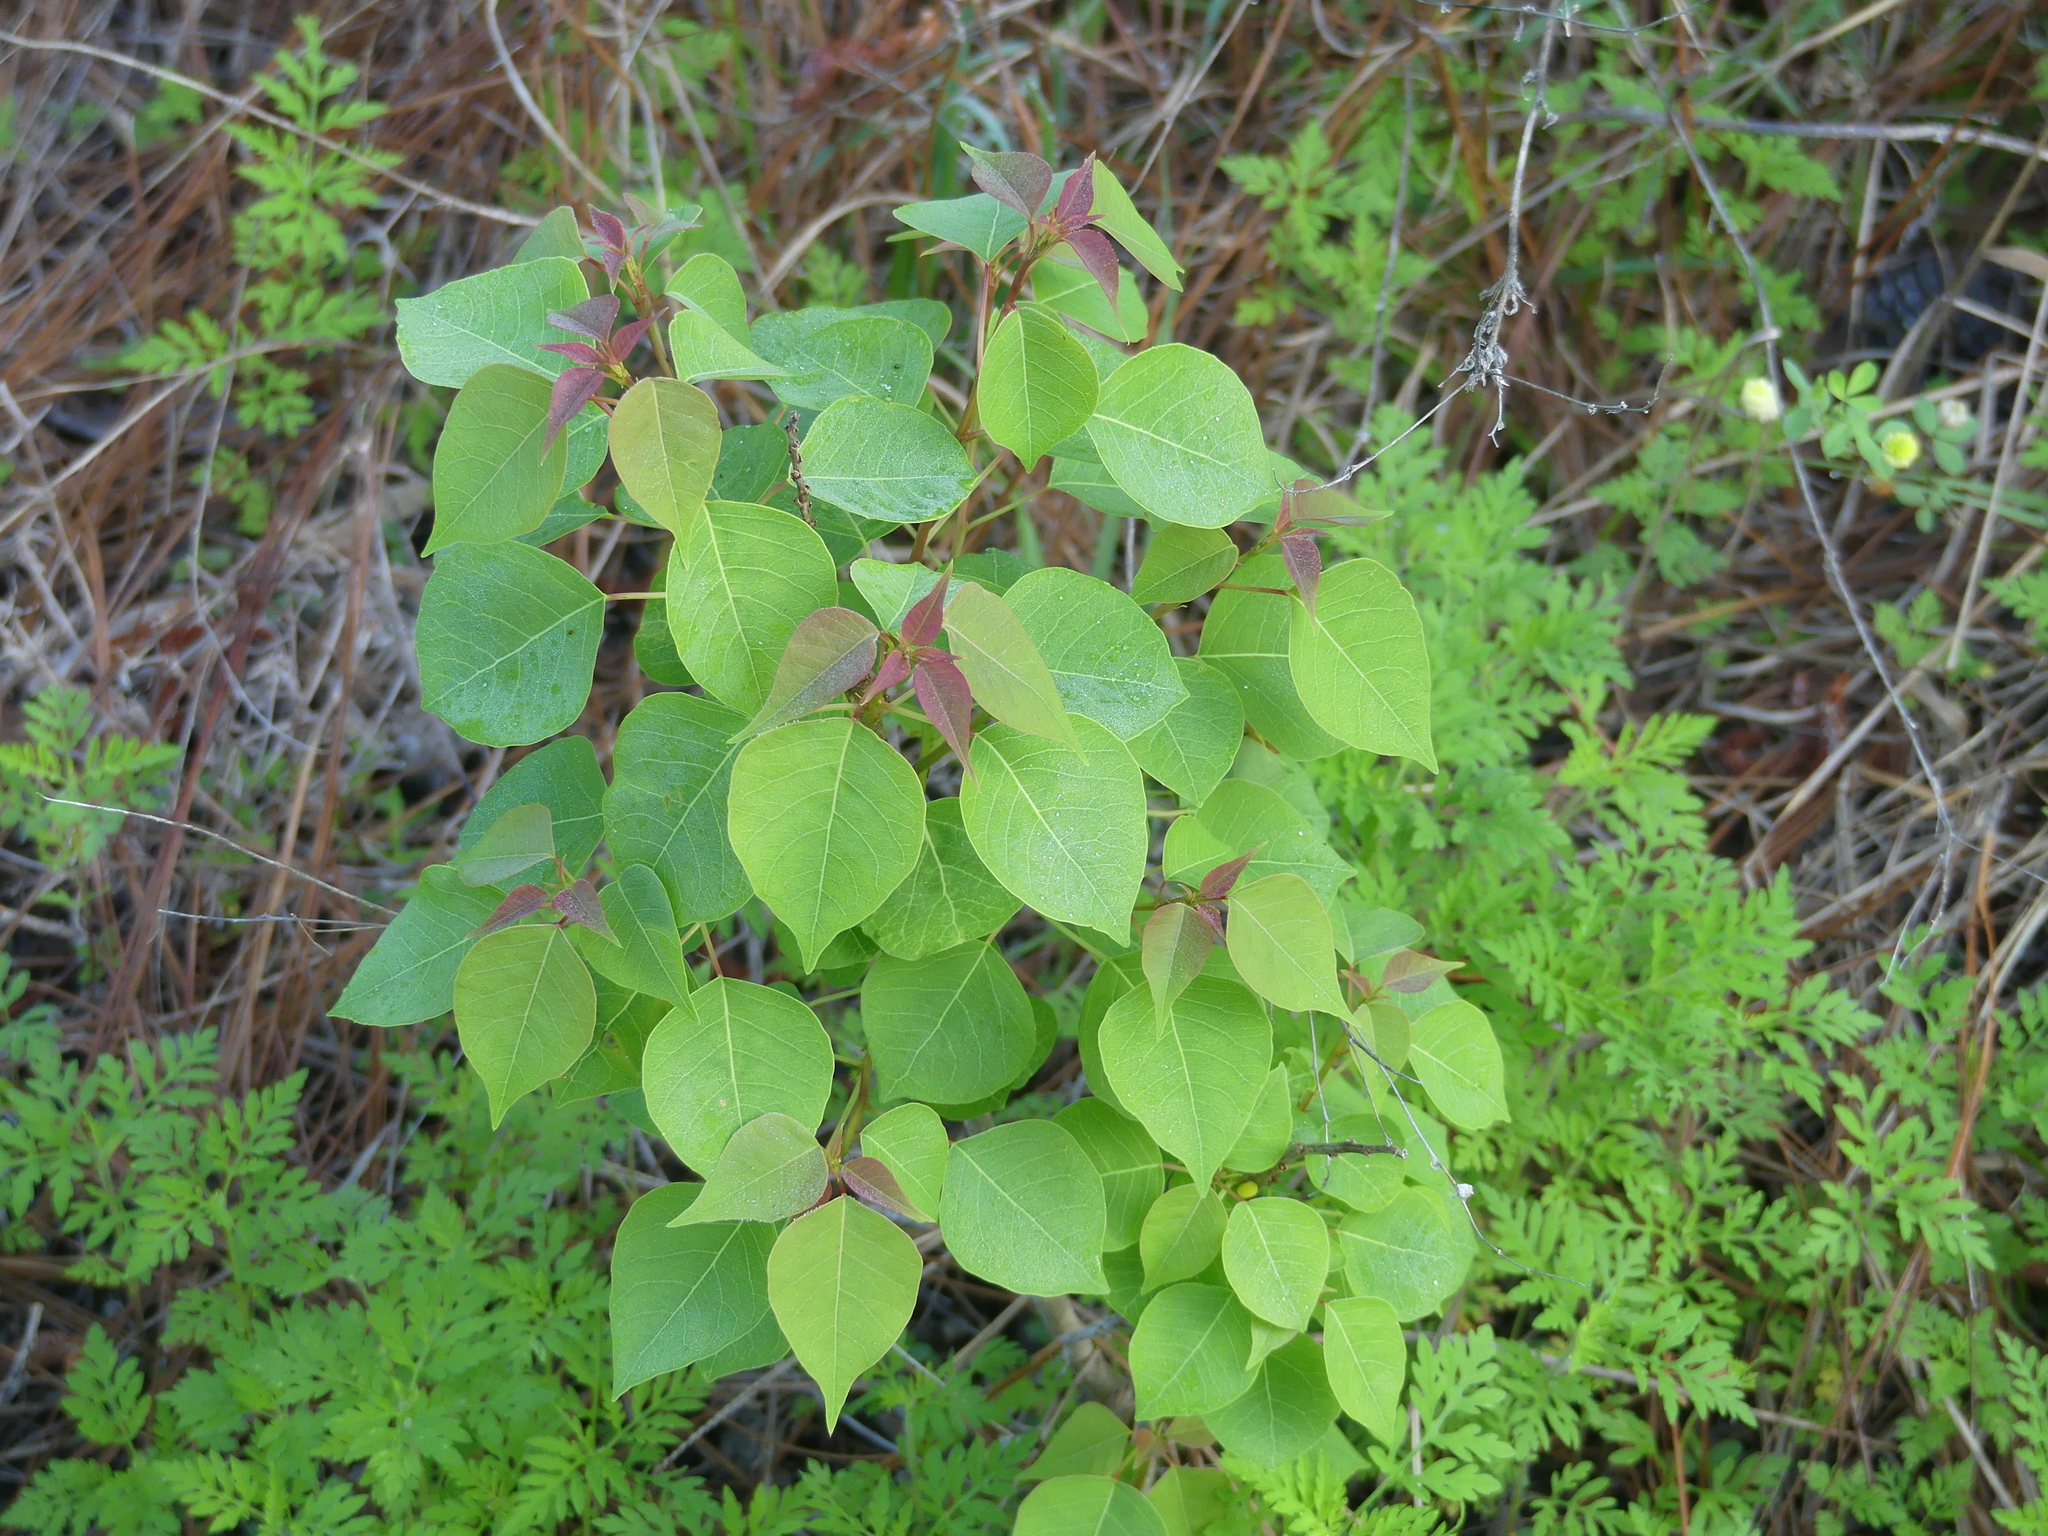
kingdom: Plantae
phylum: Tracheophyta
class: Magnoliopsida
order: Malpighiales
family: Euphorbiaceae
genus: Triadica
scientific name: Triadica sebifera
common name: Chinese tallow
